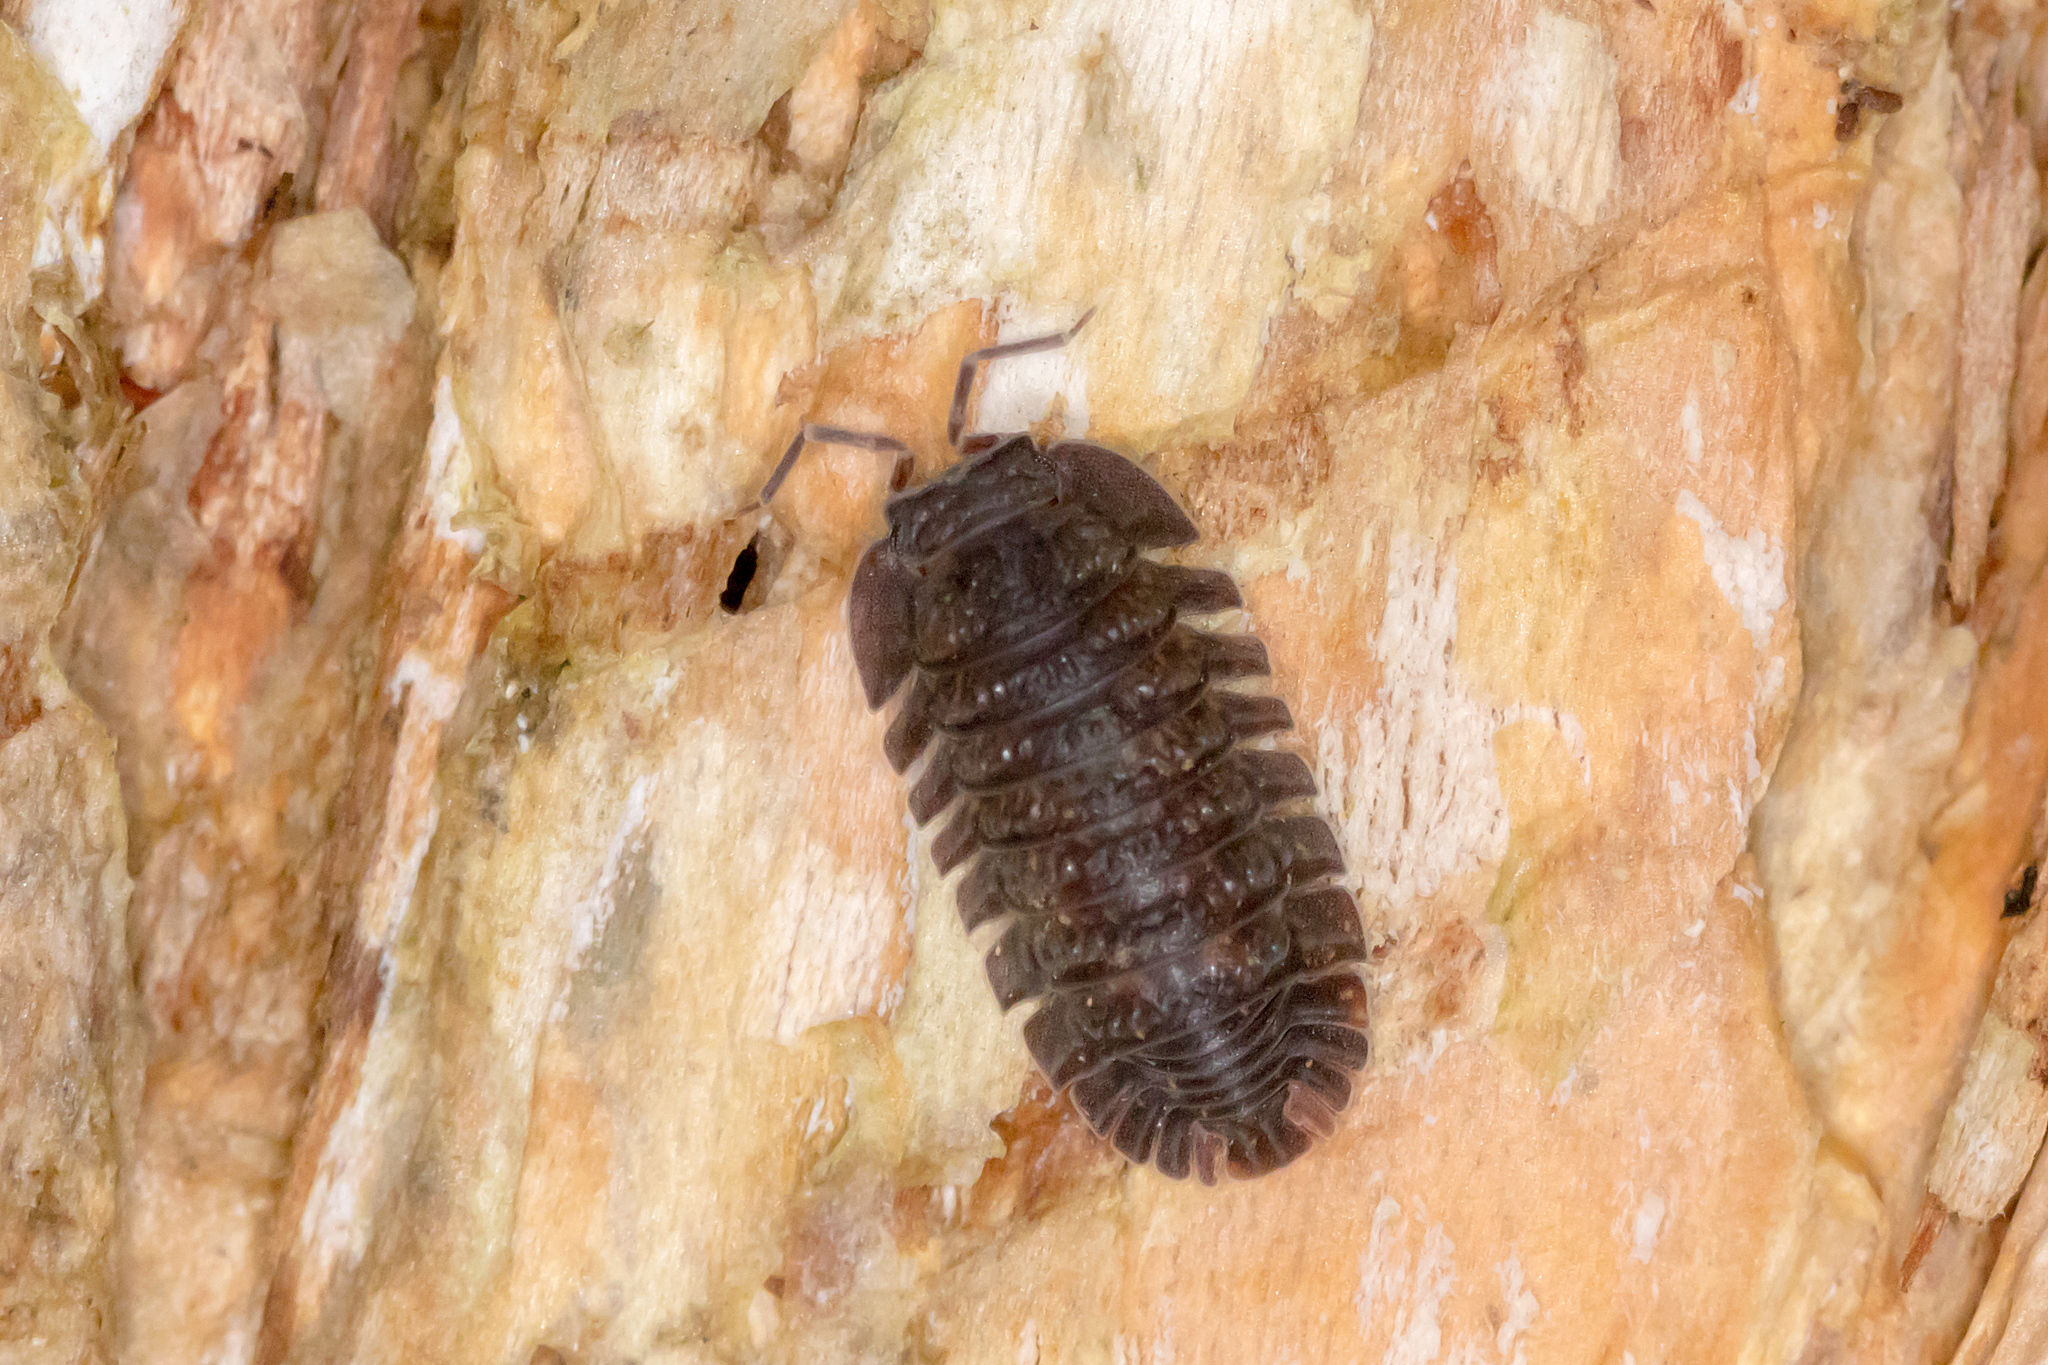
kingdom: Animalia
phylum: Arthropoda
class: Malacostraca
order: Isopoda
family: Armadillidae
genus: Merulana
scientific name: Merulana bicarinata
